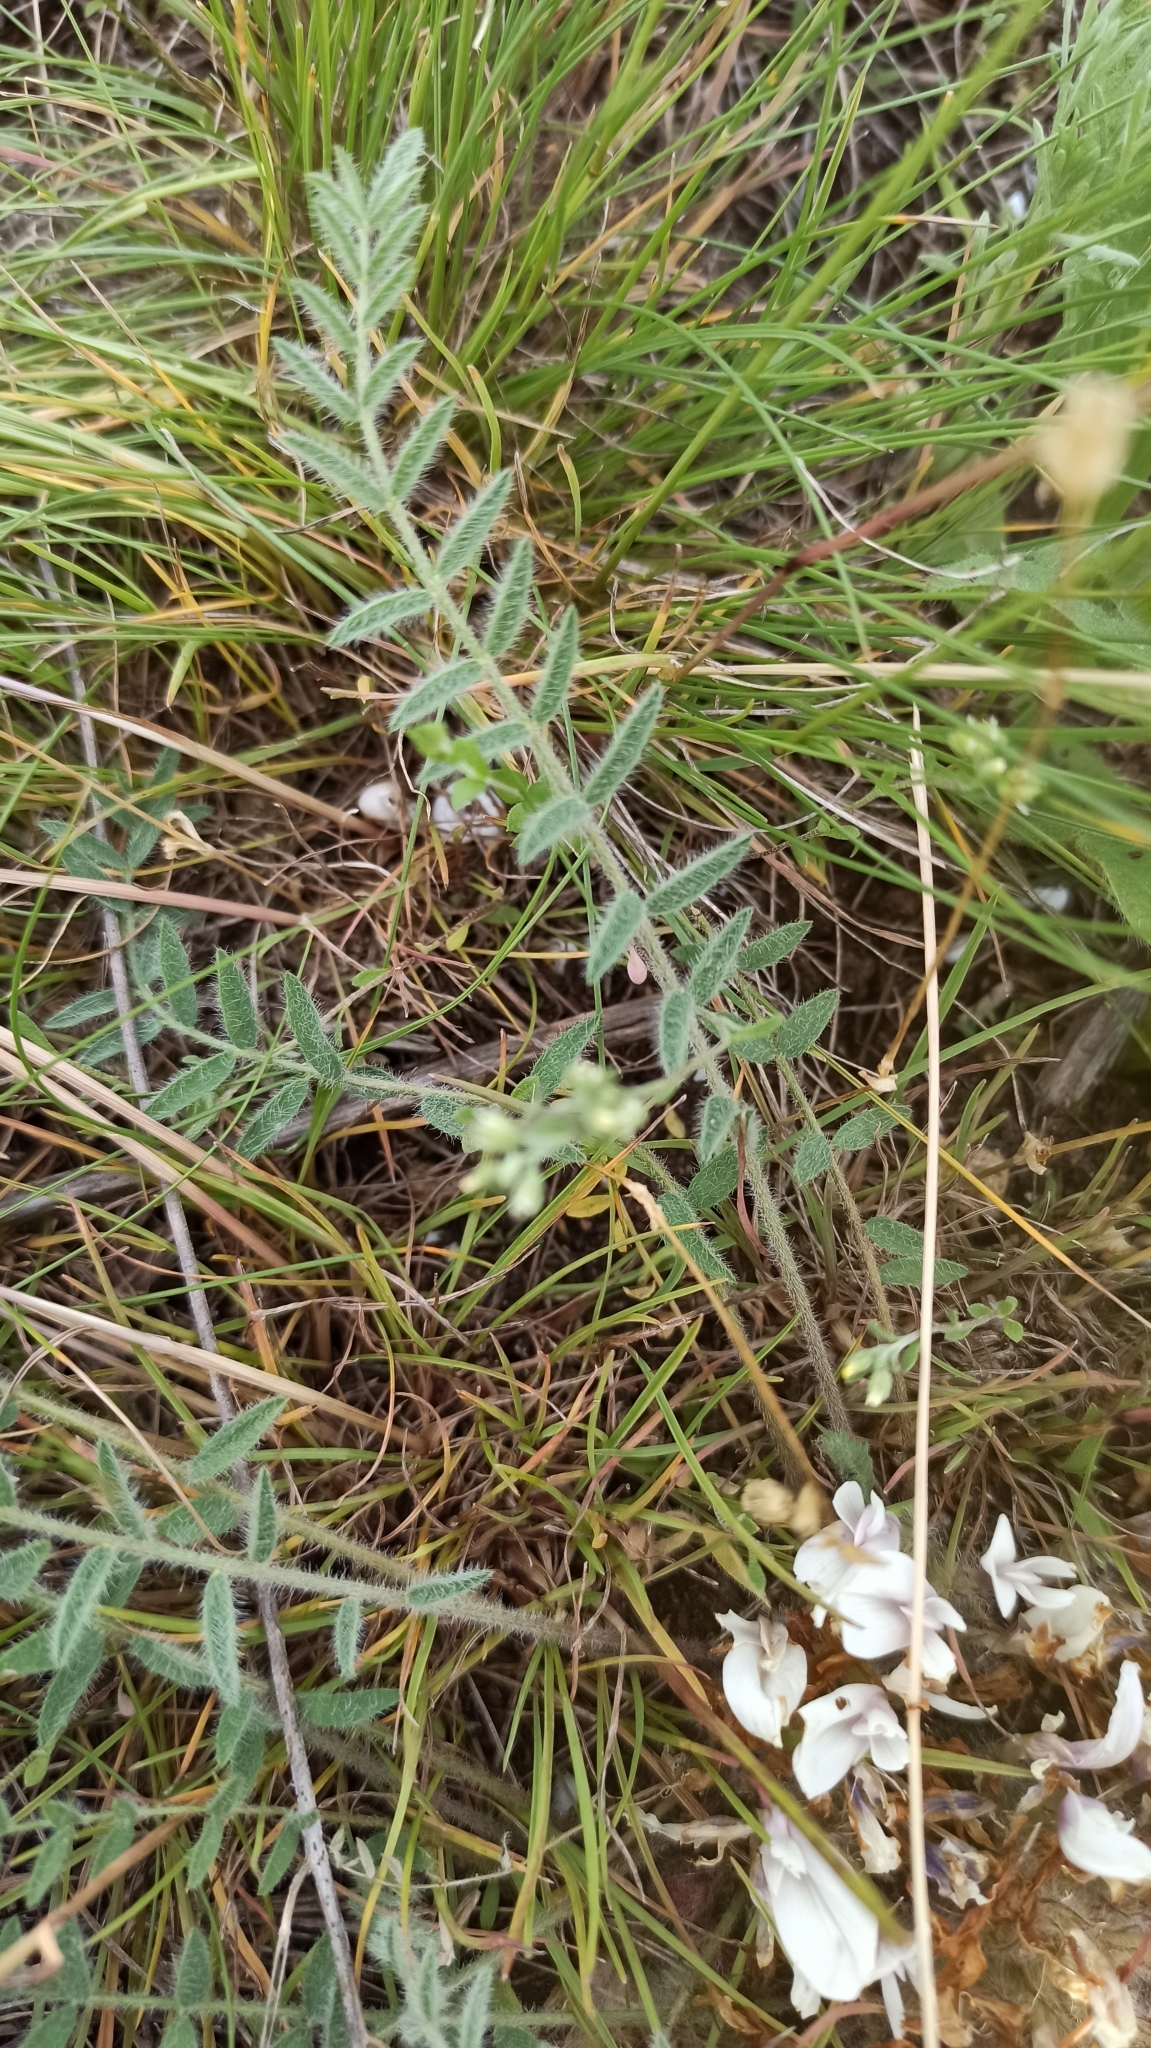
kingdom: Plantae
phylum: Tracheophyta
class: Magnoliopsida
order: Fabales
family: Fabaceae
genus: Astragalus
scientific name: Astragalus testiculatus
